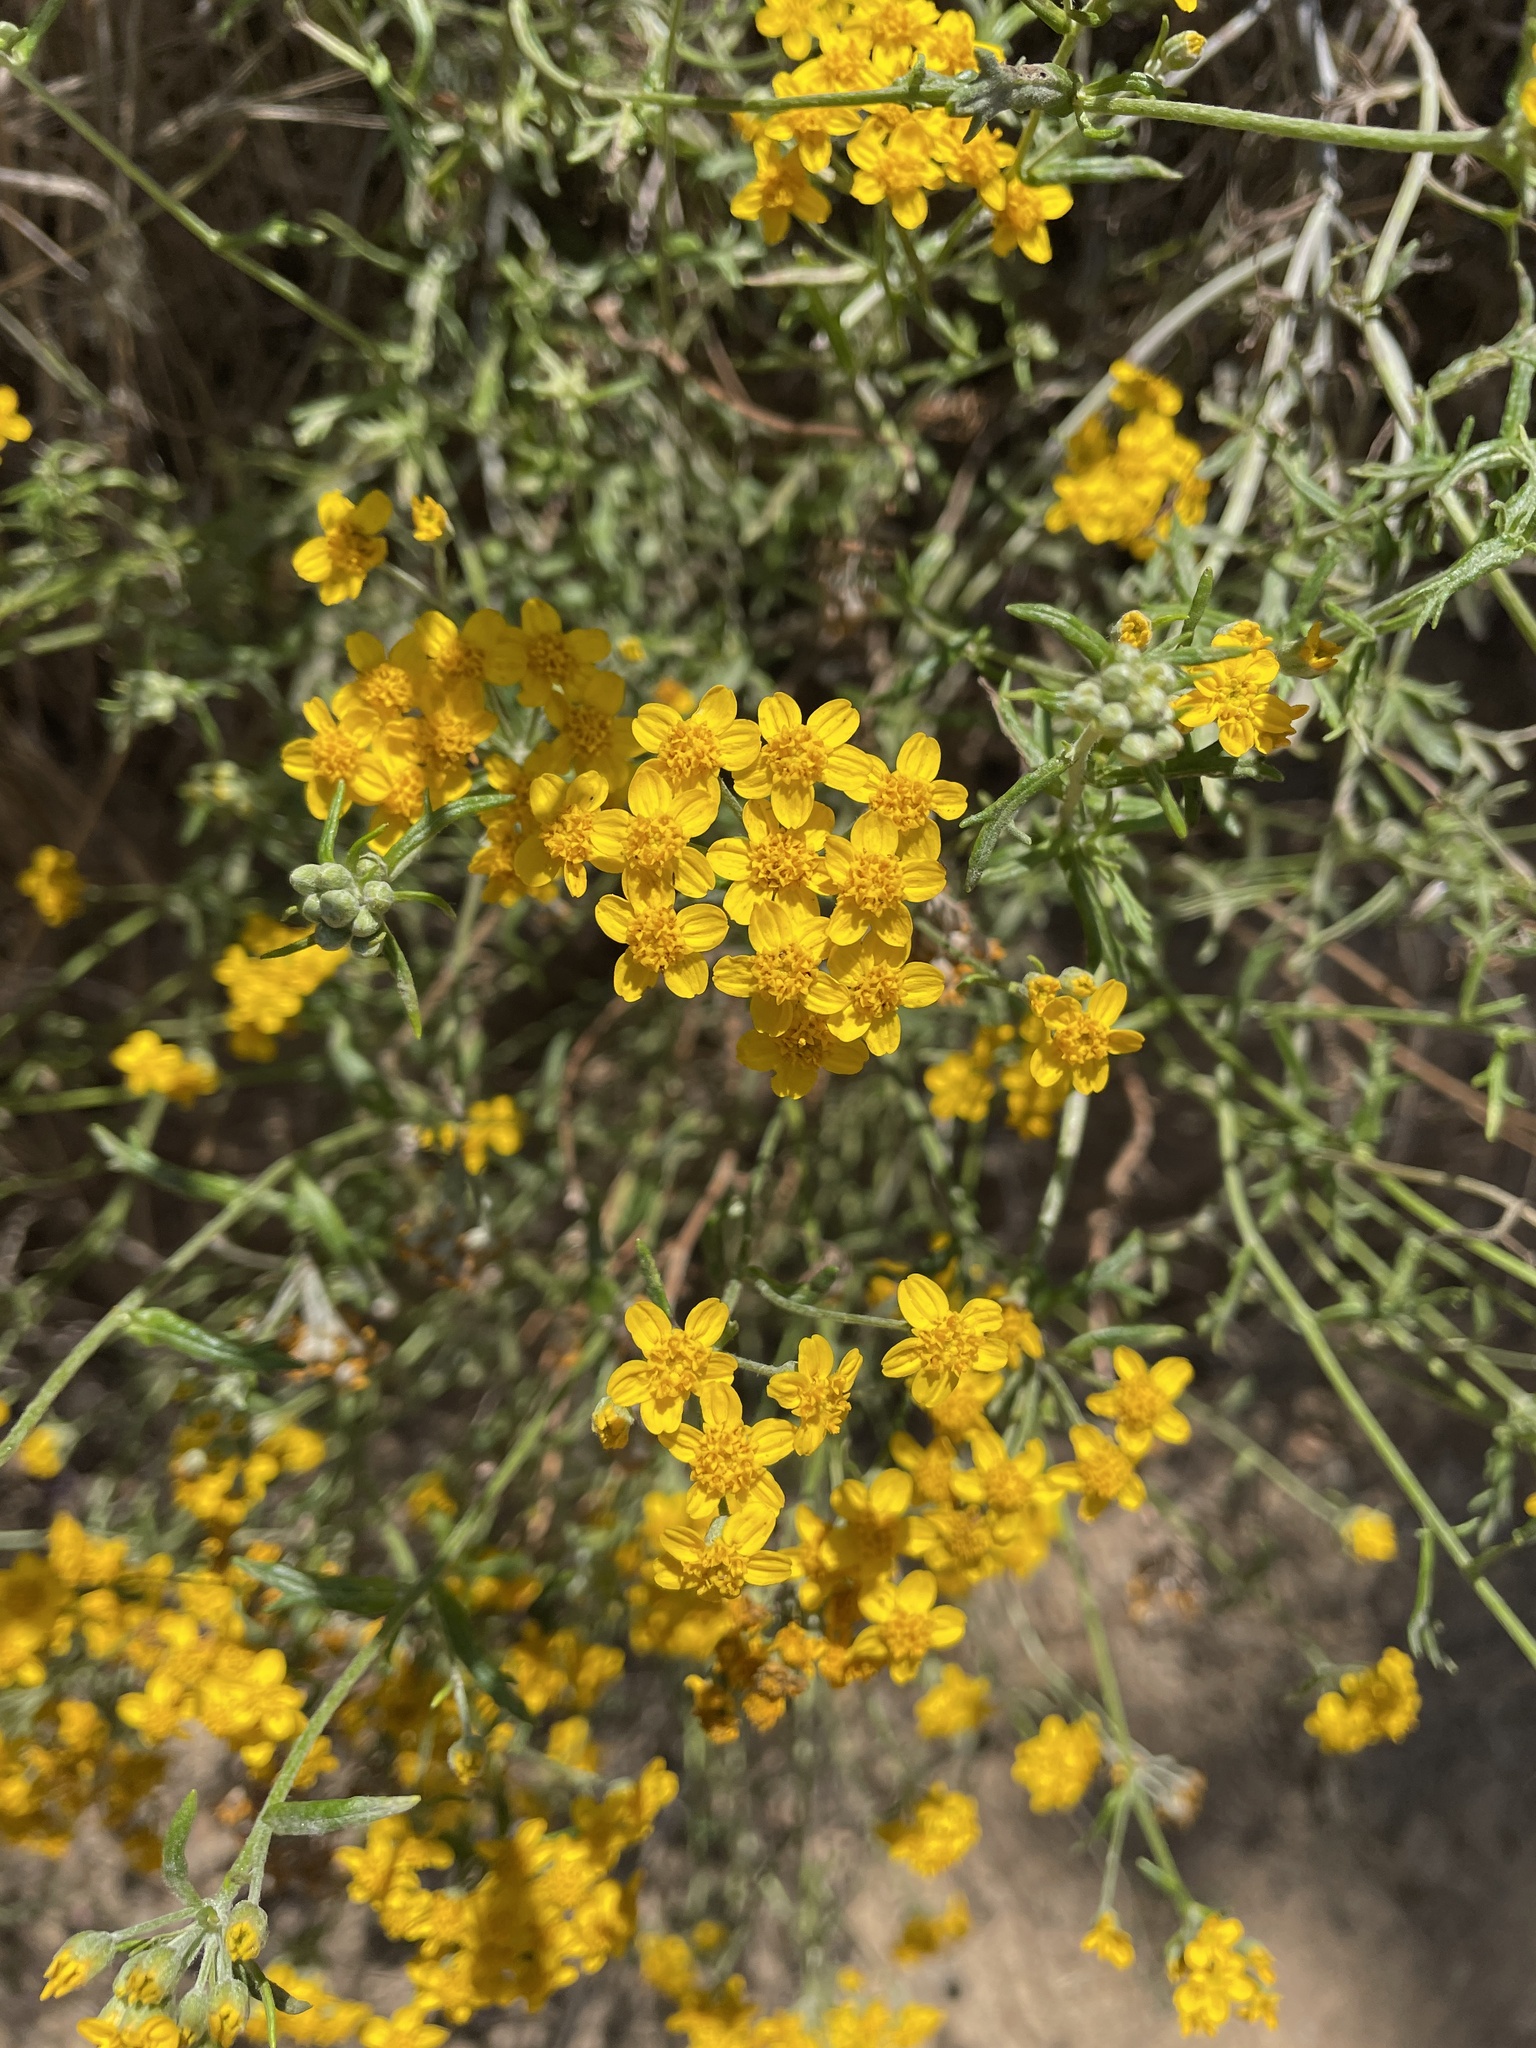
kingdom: Plantae
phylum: Tracheophyta
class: Magnoliopsida
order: Asterales
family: Asteraceae
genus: Eriophyllum
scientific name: Eriophyllum confertiflorum
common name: Golden-yarrow
